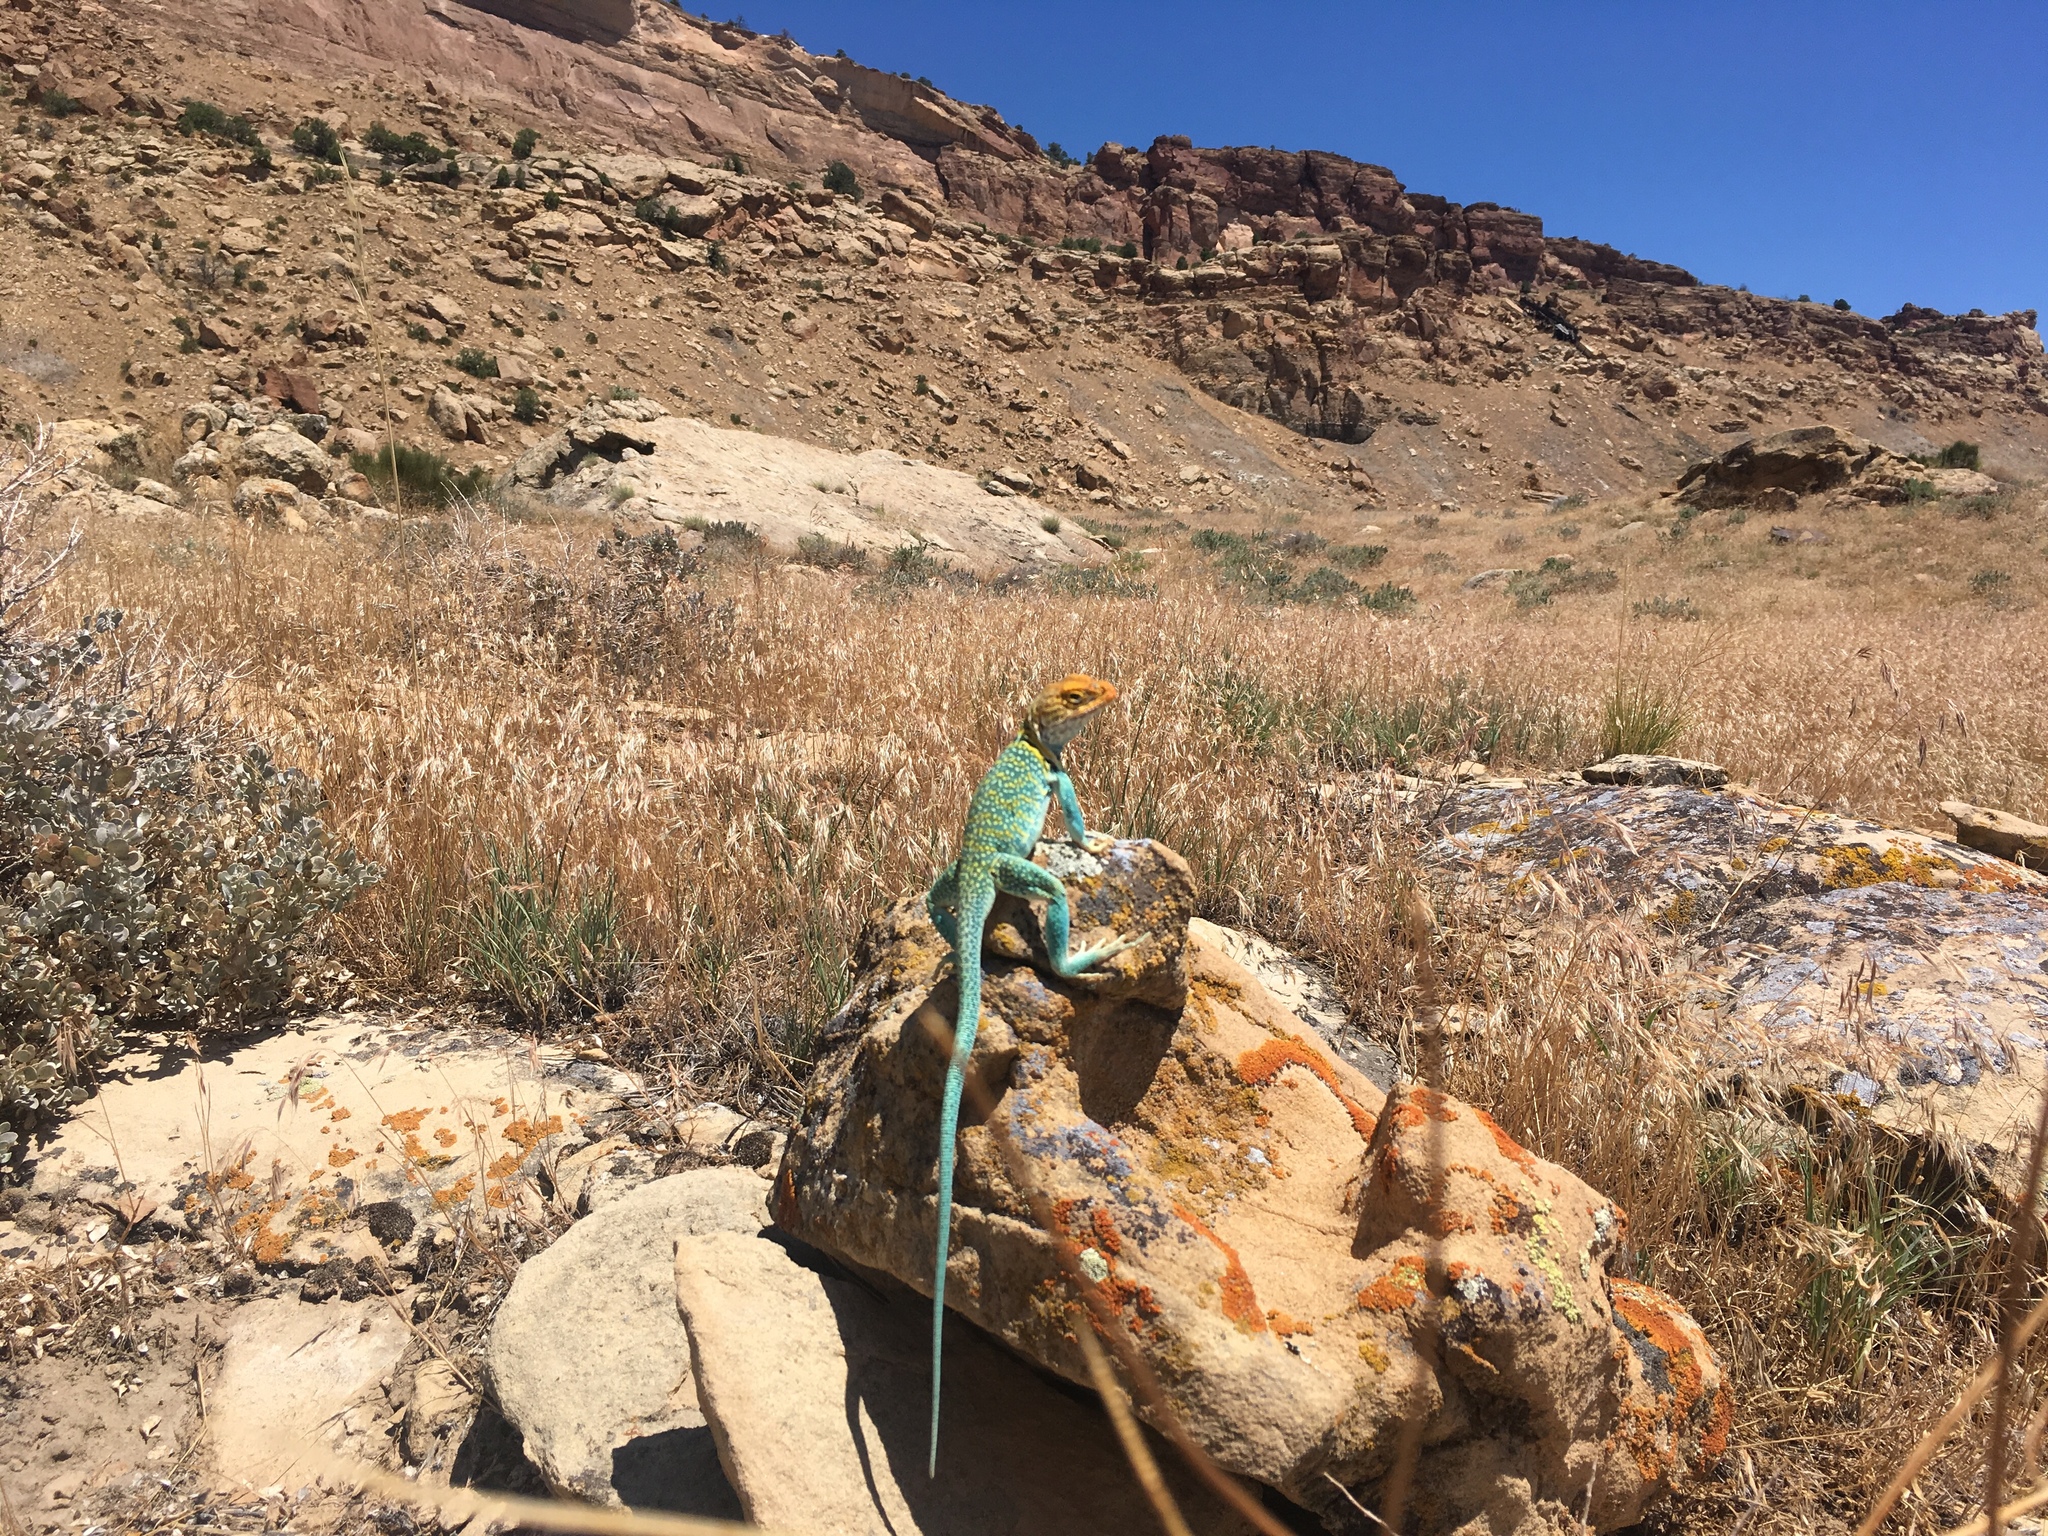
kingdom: Animalia
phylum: Chordata
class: Squamata
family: Crotaphytidae
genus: Crotaphytus
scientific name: Crotaphytus collaris
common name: Collared lizard
